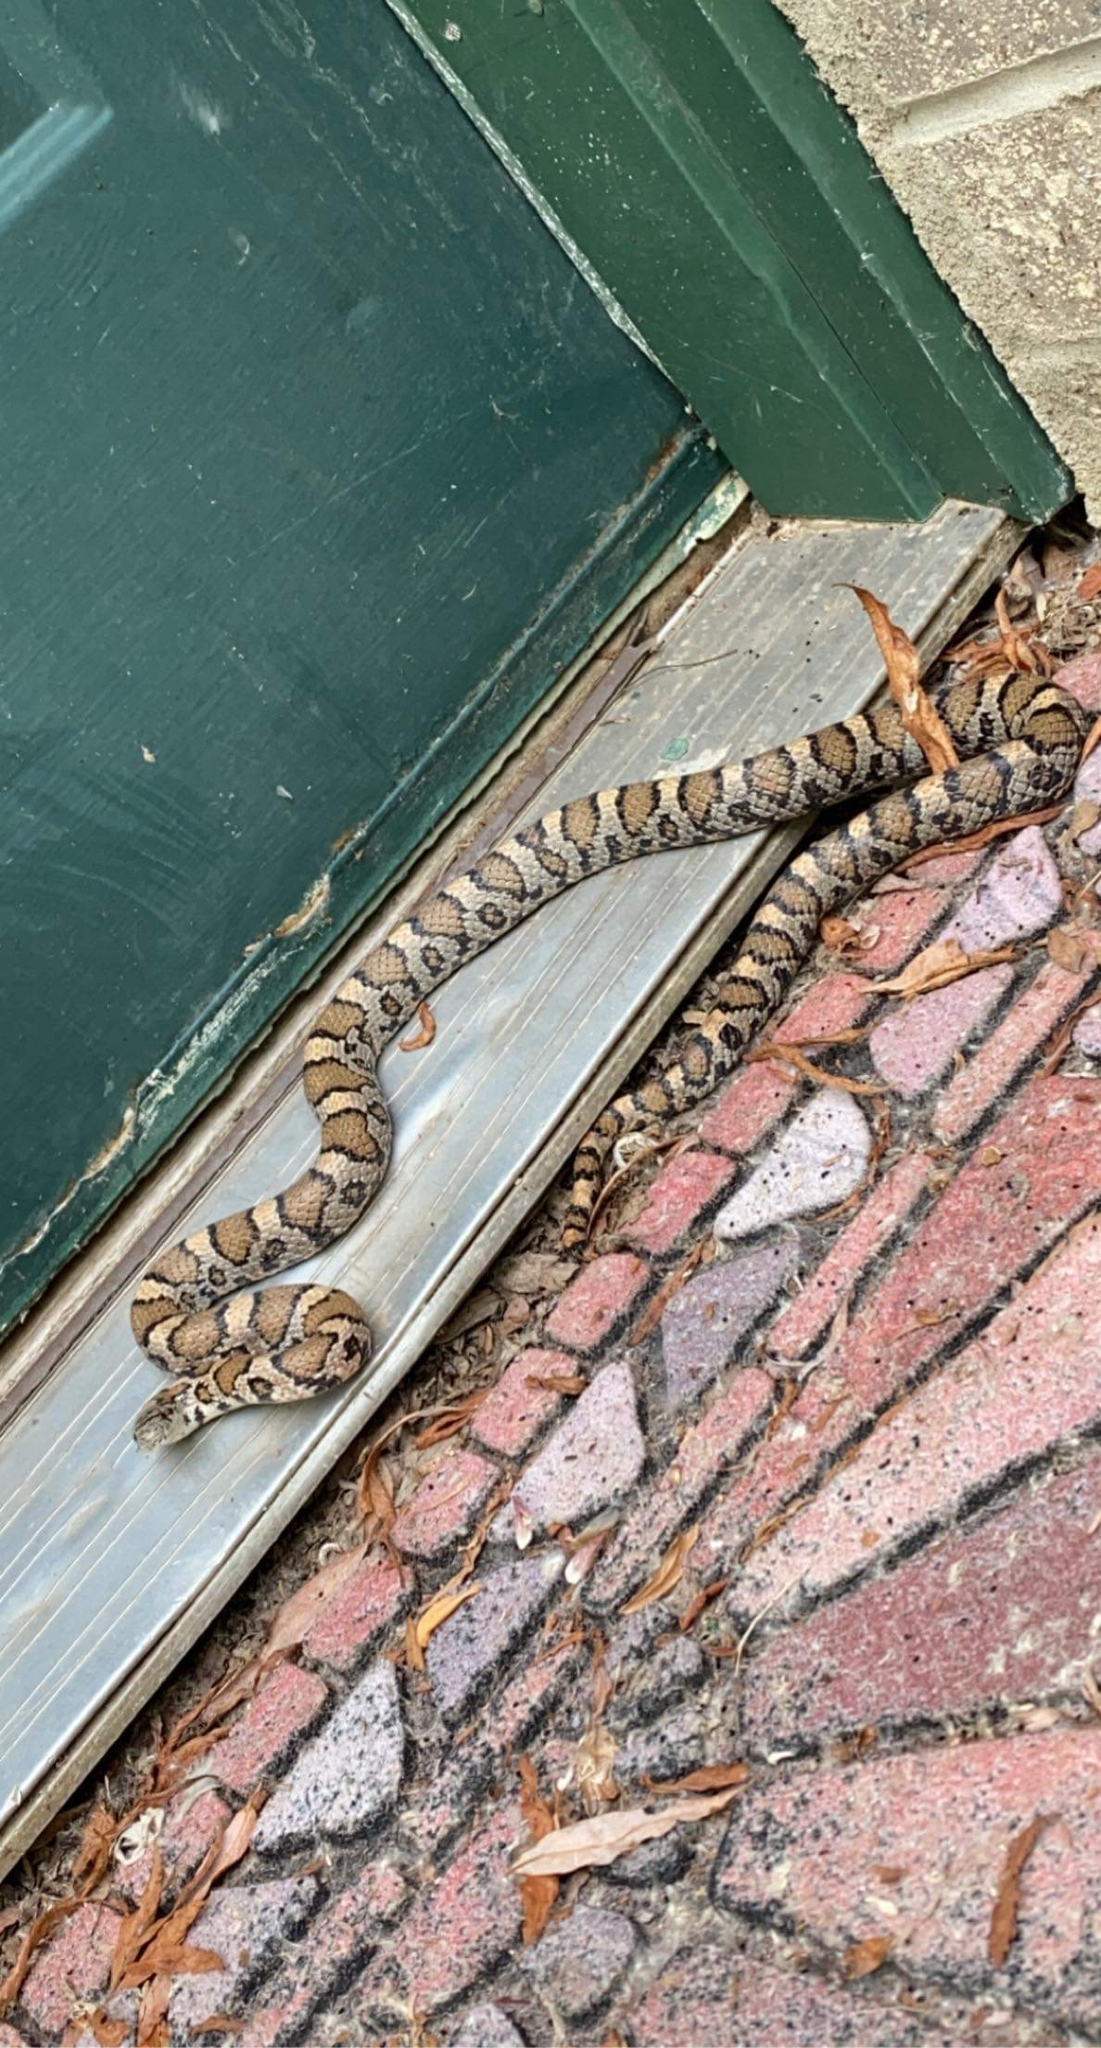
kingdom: Animalia
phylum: Chordata
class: Squamata
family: Colubridae
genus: Lampropeltis
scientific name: Lampropeltis triangulum
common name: Eastern milksnake
